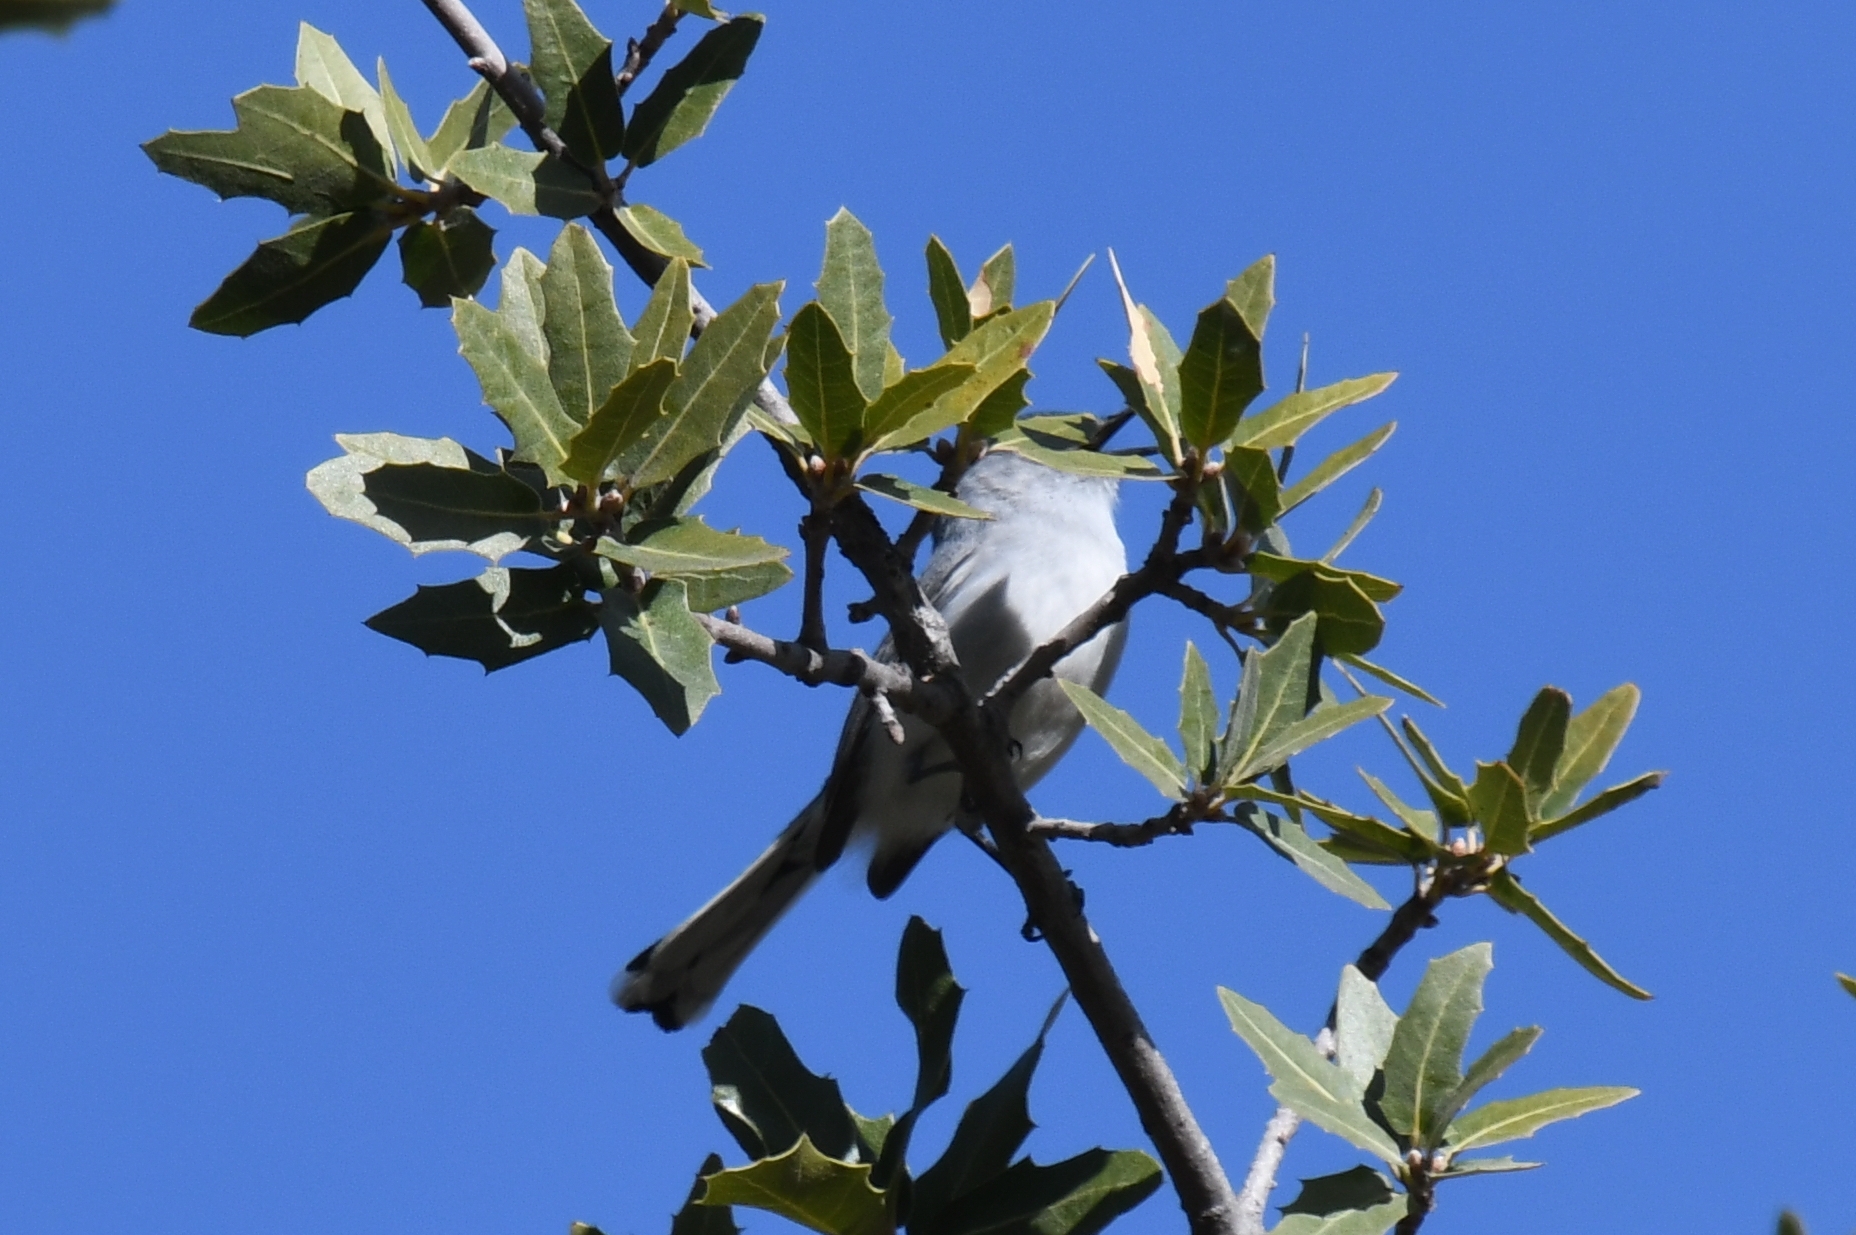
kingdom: Animalia
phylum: Chordata
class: Aves
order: Passeriformes
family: Polioptilidae
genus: Polioptila
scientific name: Polioptila caerulea
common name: Blue-gray gnatcatcher
